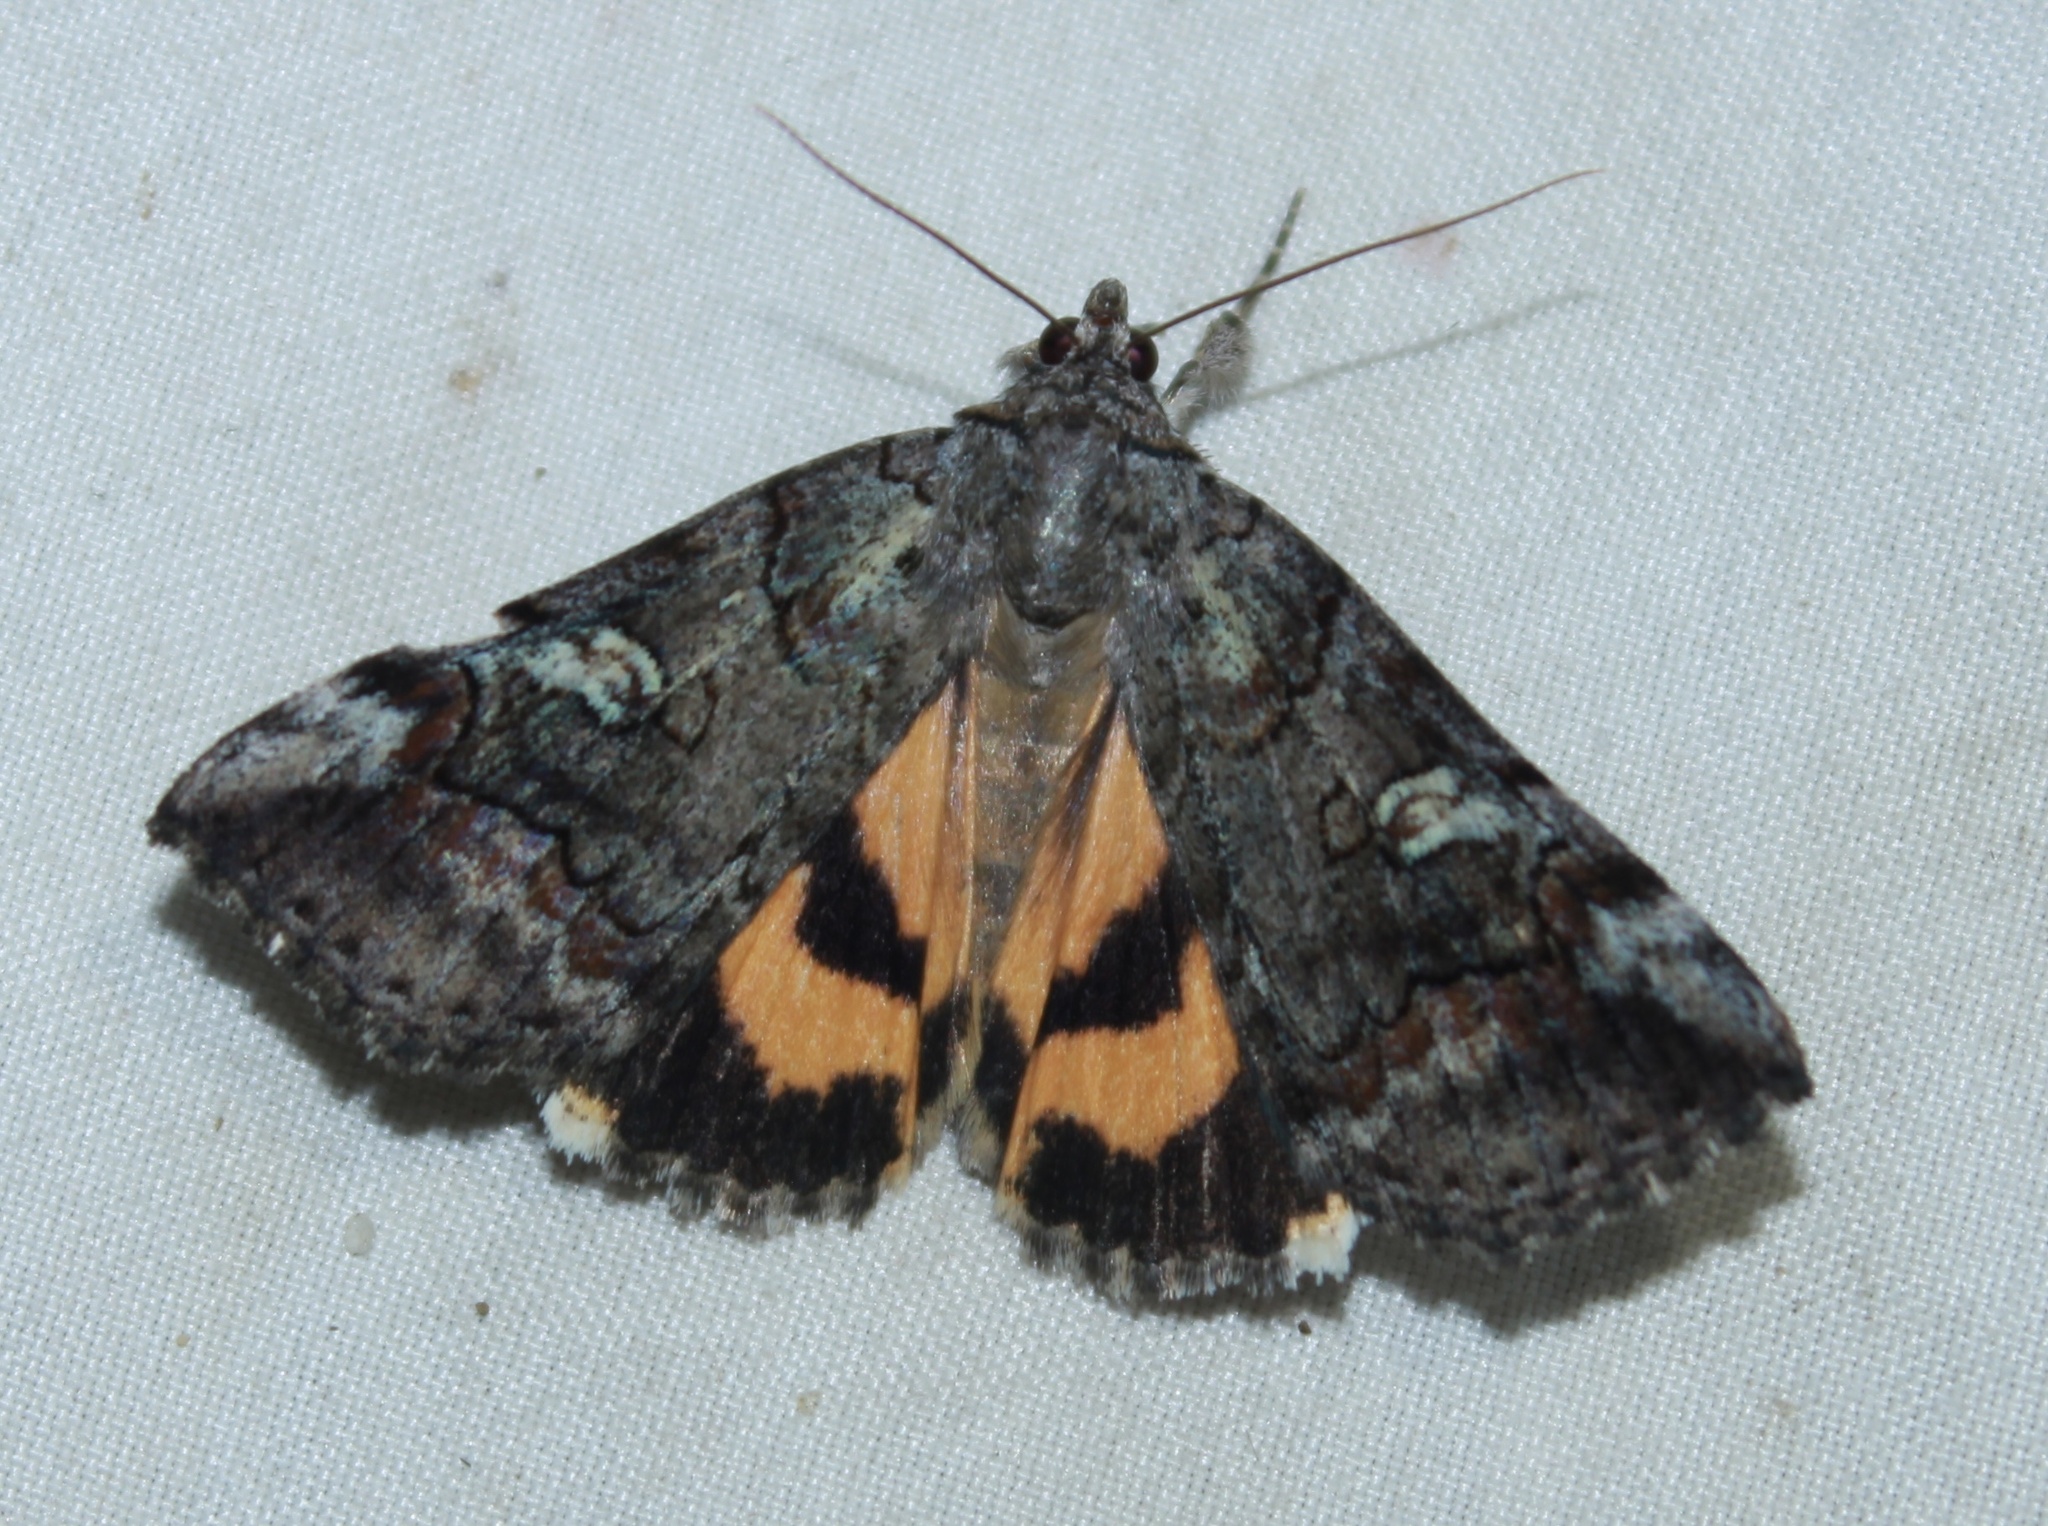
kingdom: Animalia
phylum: Arthropoda
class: Insecta
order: Lepidoptera
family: Erebidae
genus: Catocala
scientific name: Catocala similis
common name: Similar underwing
